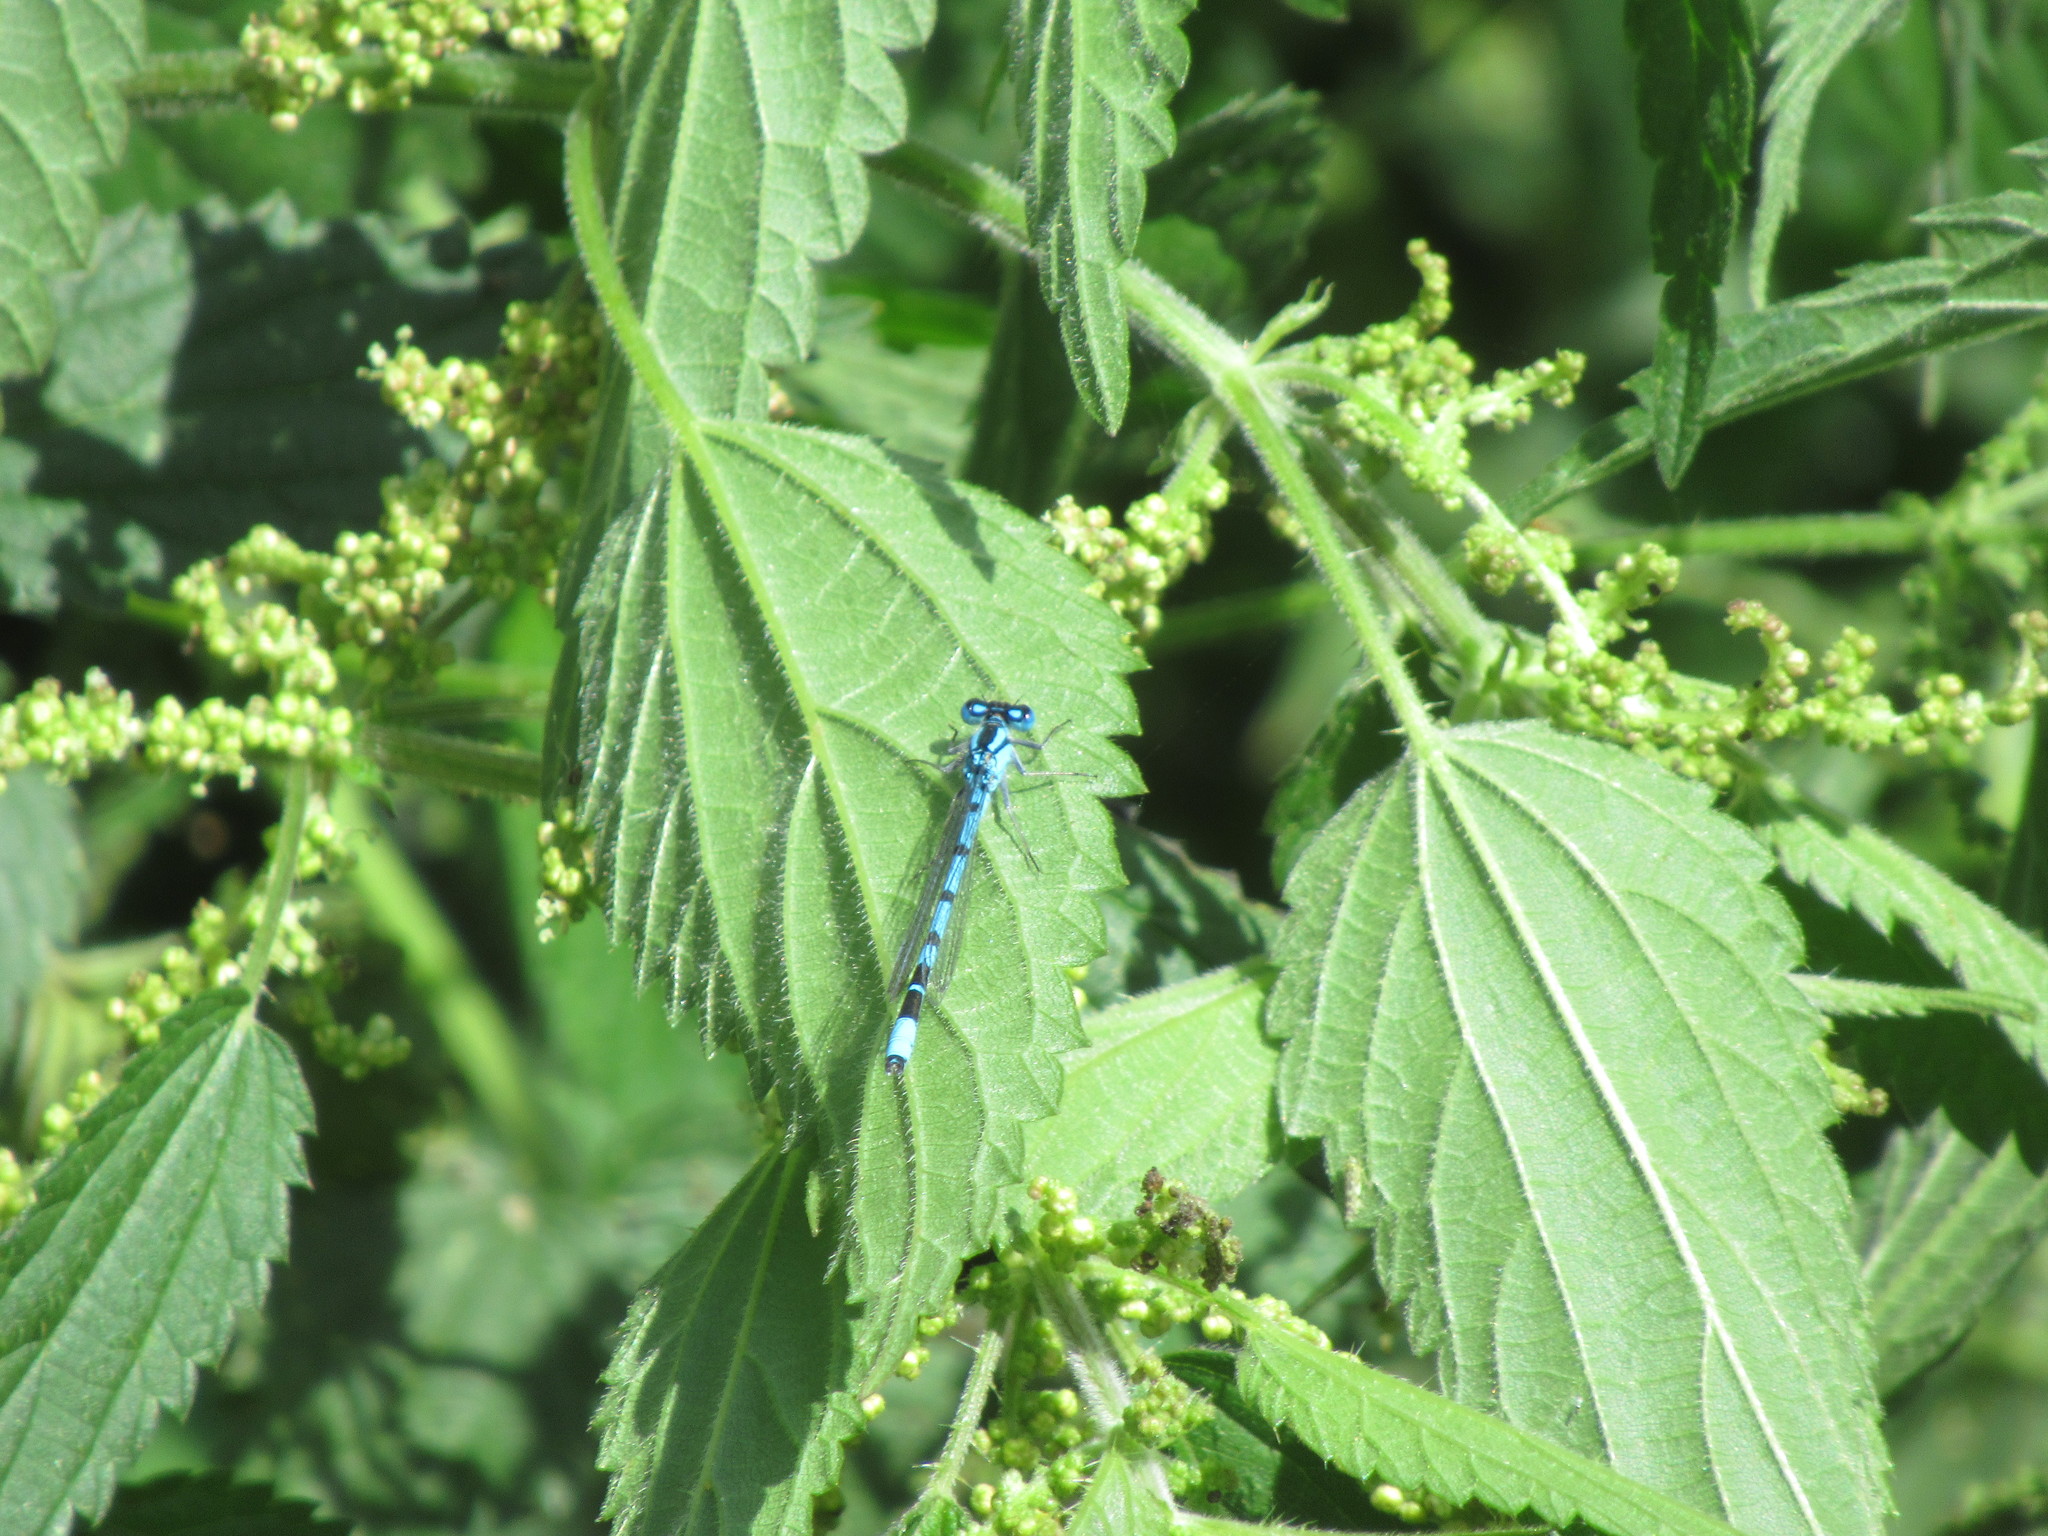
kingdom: Animalia
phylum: Arthropoda
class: Insecta
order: Odonata
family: Coenagrionidae
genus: Enallagma
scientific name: Enallagma cyathigerum
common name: Common blue damselfly
